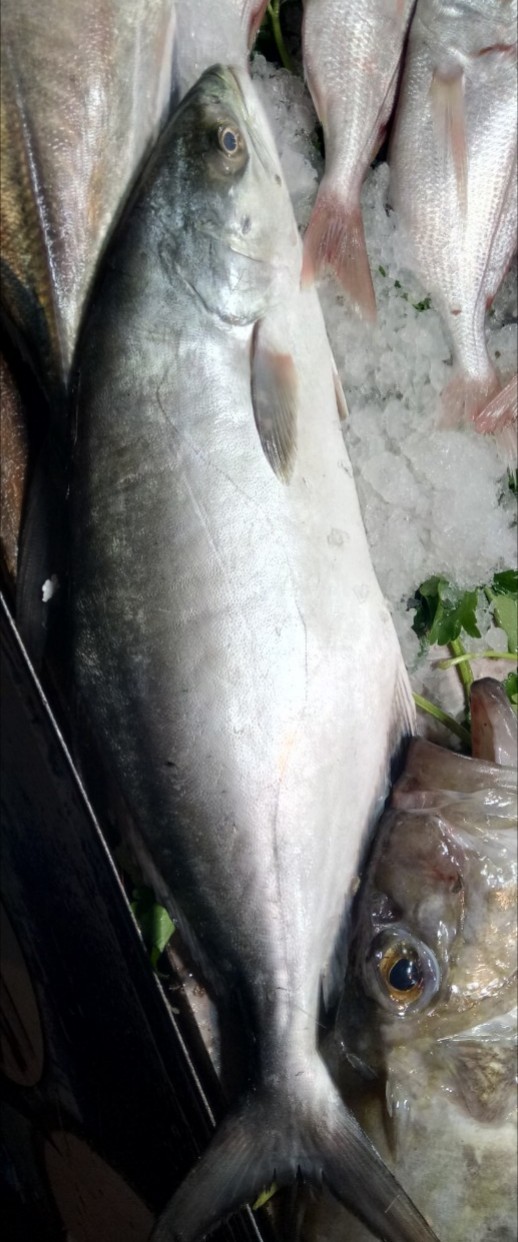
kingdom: Animalia
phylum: Chordata
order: Perciformes
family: Carangidae
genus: Lichia
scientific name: Lichia amia
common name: Leerfish
